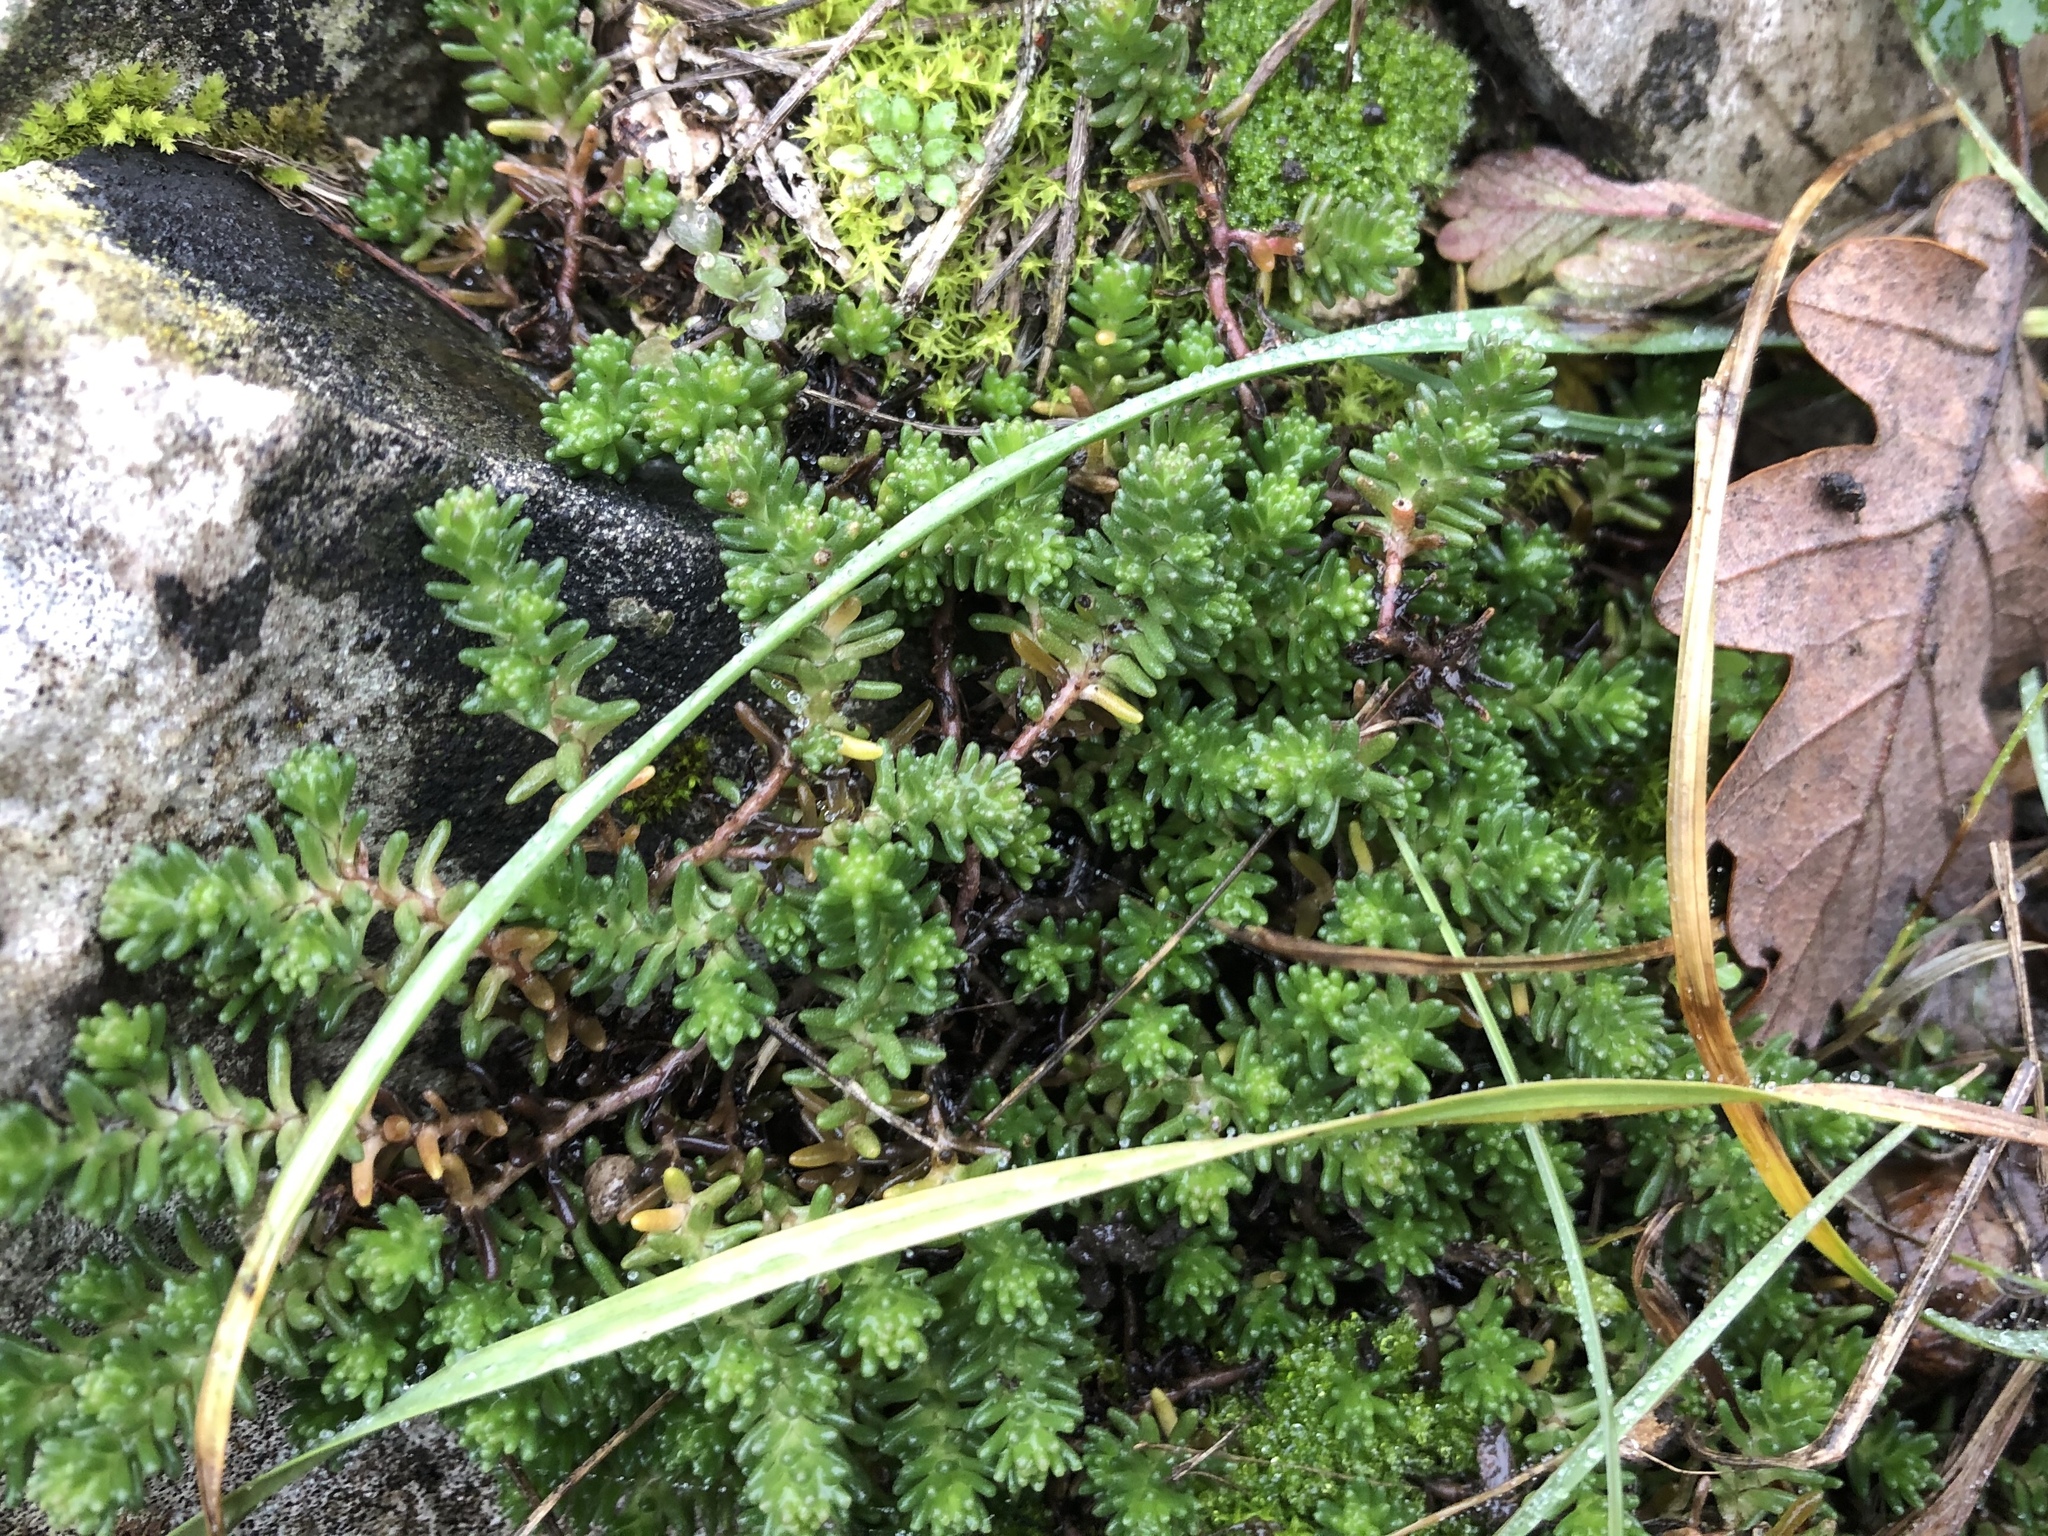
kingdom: Plantae
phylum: Tracheophyta
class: Magnoliopsida
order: Saxifragales
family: Crassulaceae
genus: Sedum
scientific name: Sedum sexangulare
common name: Tasteless stonecrop
